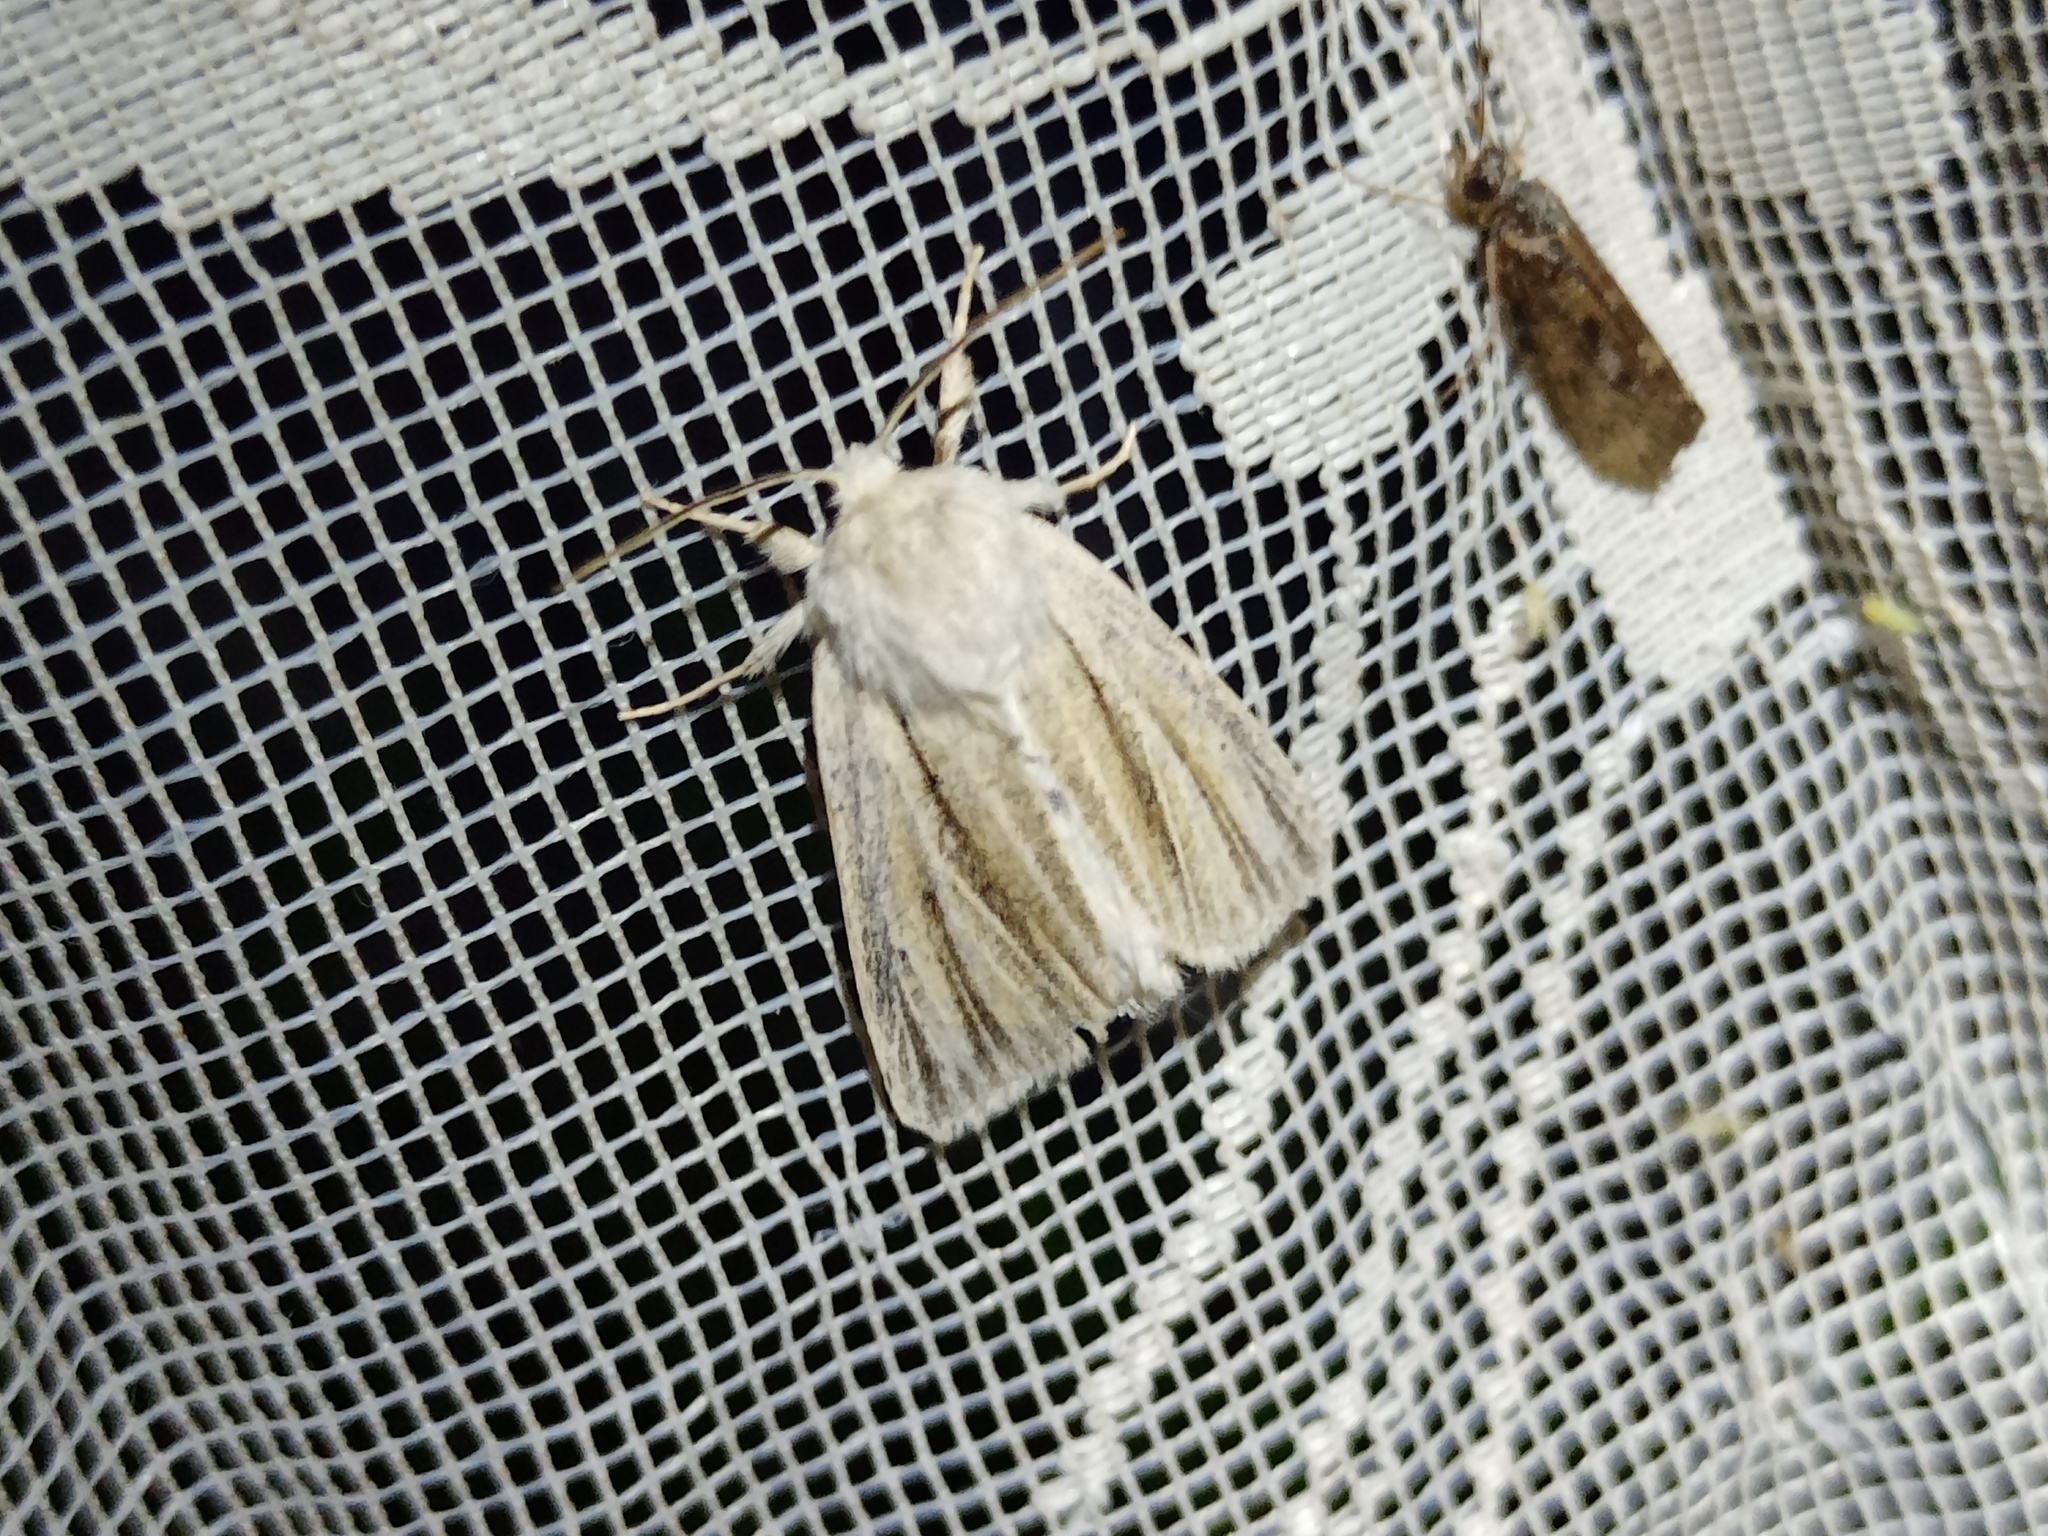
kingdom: Animalia
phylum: Arthropoda
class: Insecta
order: Lepidoptera
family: Noctuidae
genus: Simyra
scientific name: Simyra albovenosa
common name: Reed dagger
